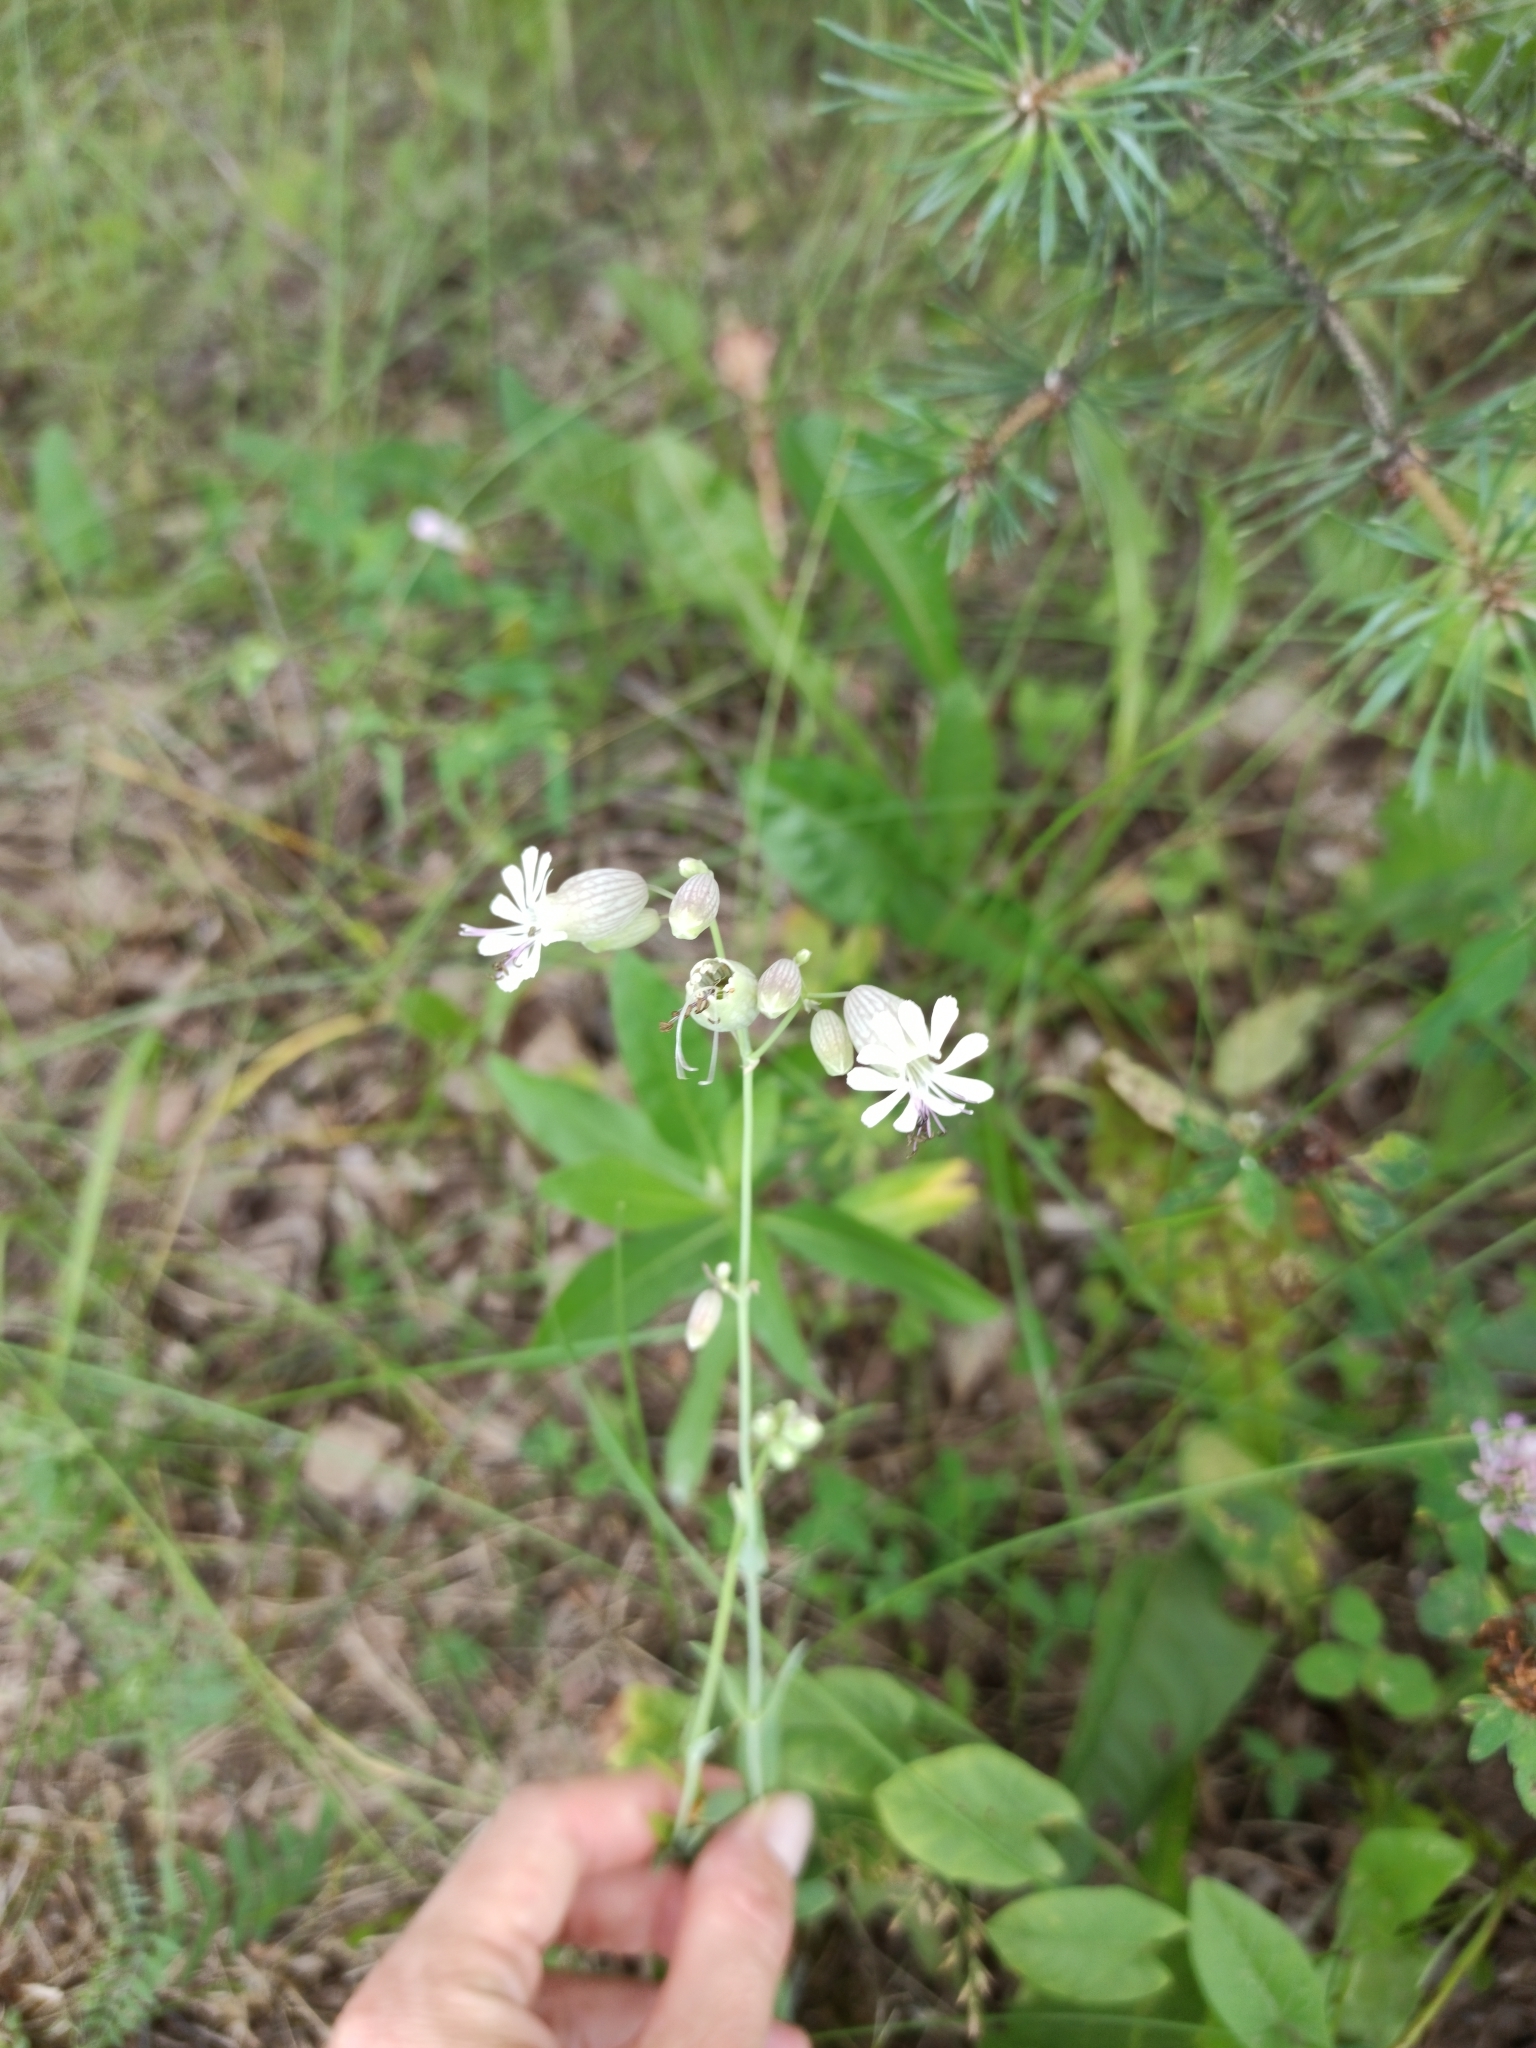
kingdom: Plantae
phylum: Tracheophyta
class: Magnoliopsida
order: Caryophyllales
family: Caryophyllaceae
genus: Silene
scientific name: Silene vulgaris
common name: Bladder campion
